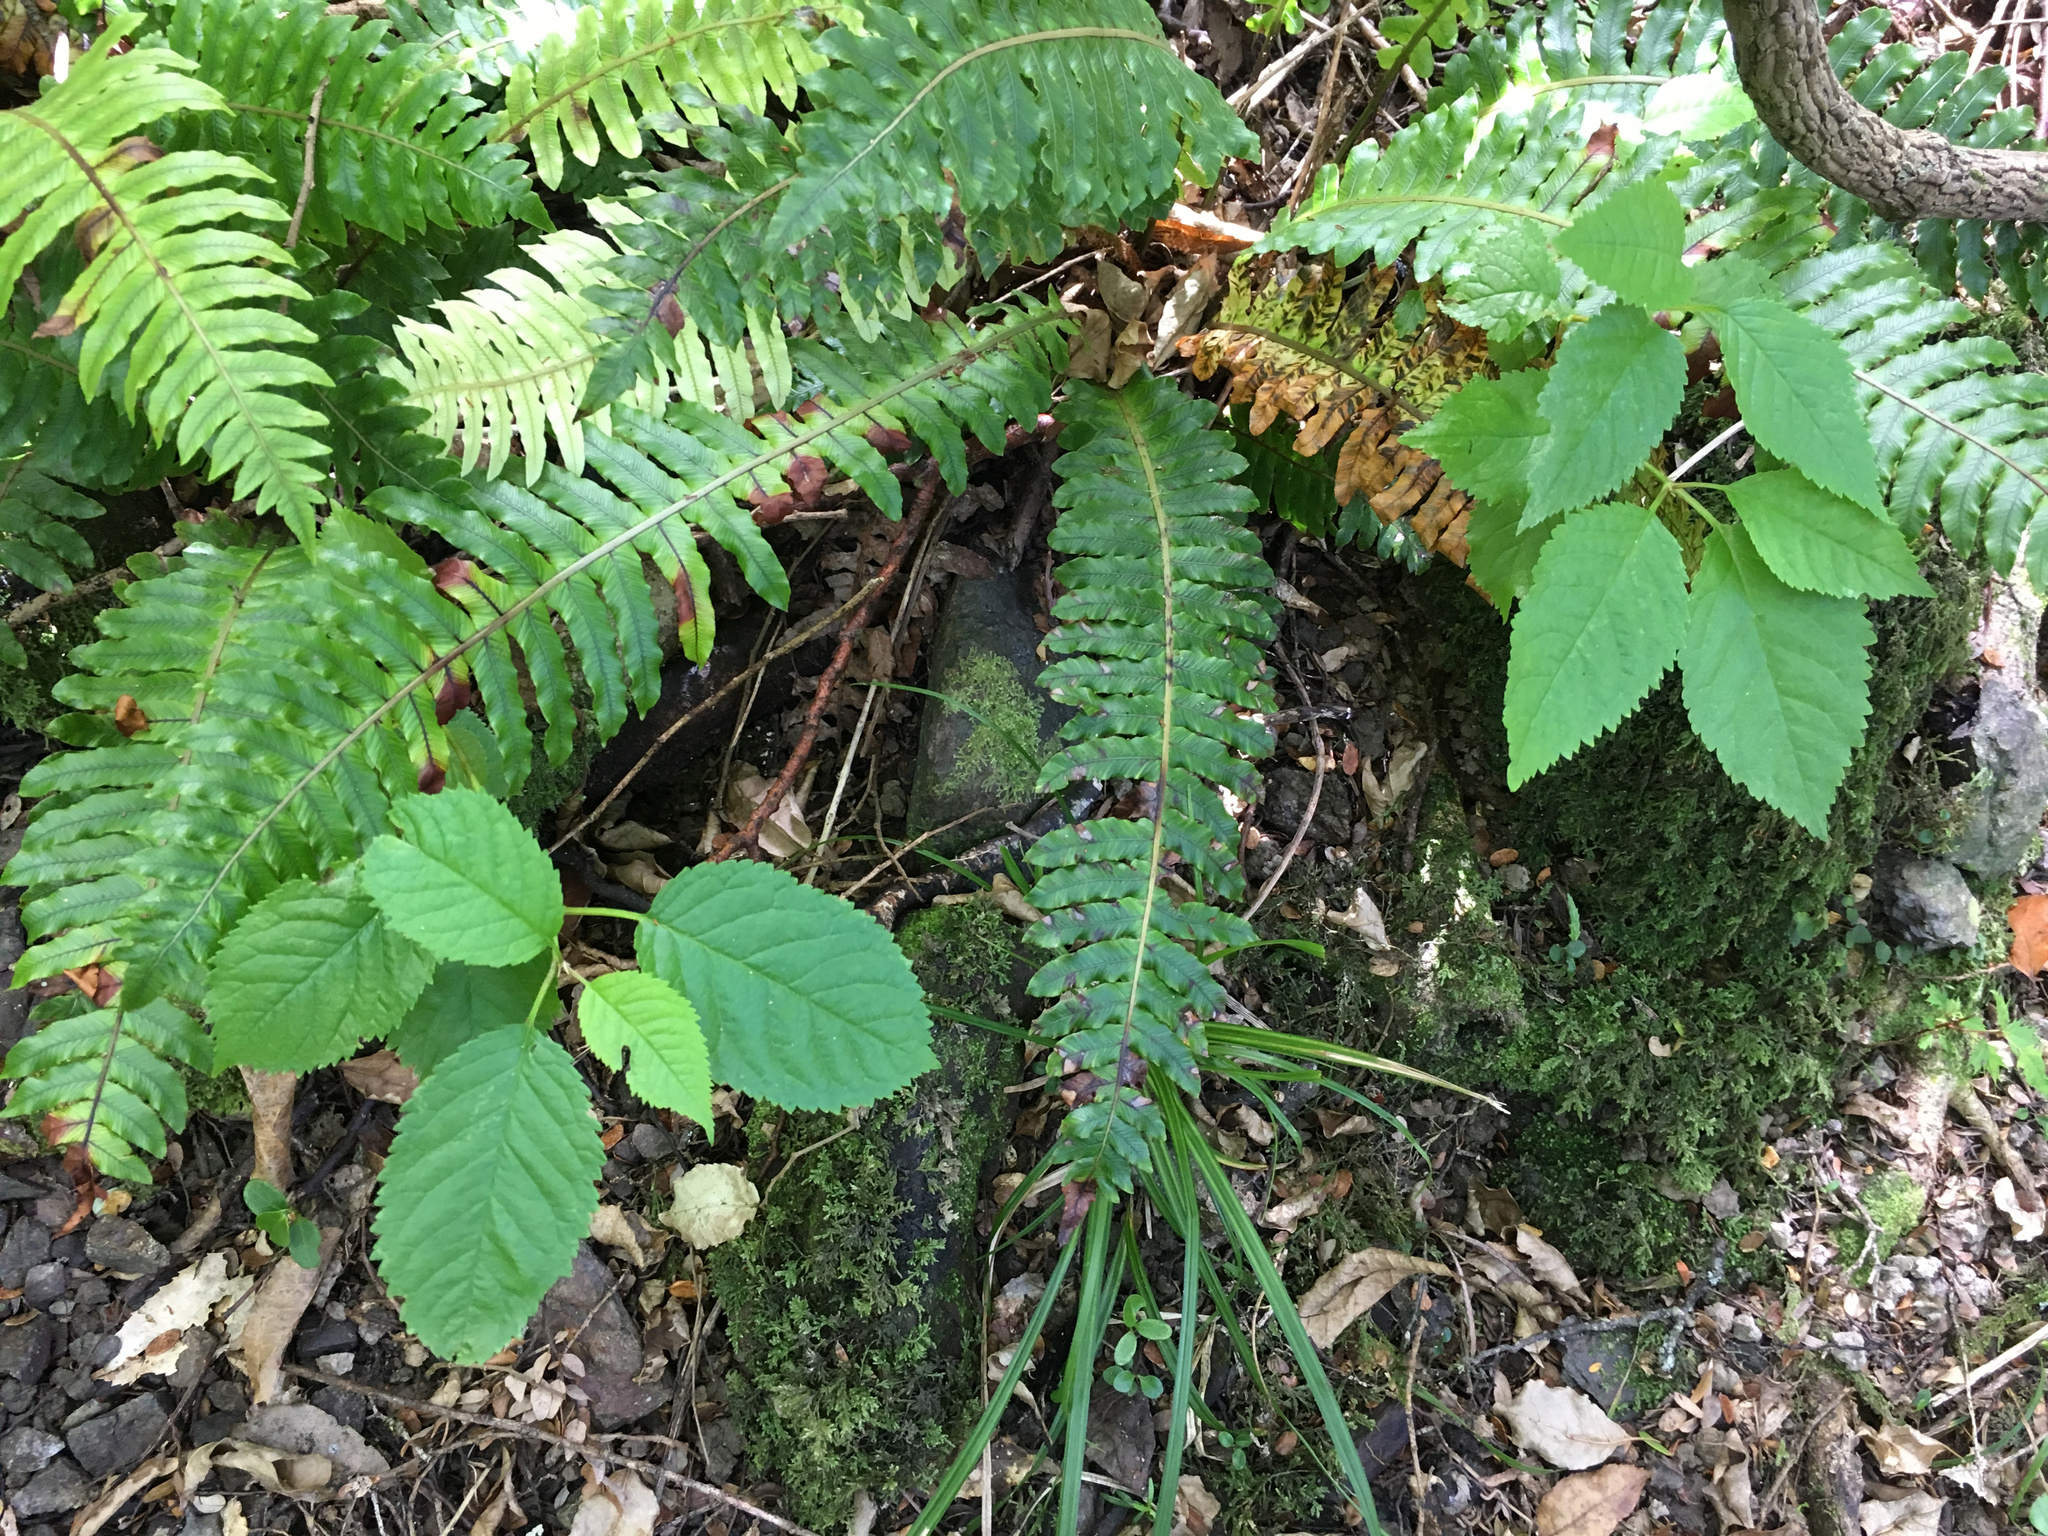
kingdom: Plantae
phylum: Tracheophyta
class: Magnoliopsida
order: Rosales
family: Rosaceae
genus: Prunus
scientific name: Prunus avium
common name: Sweet cherry
